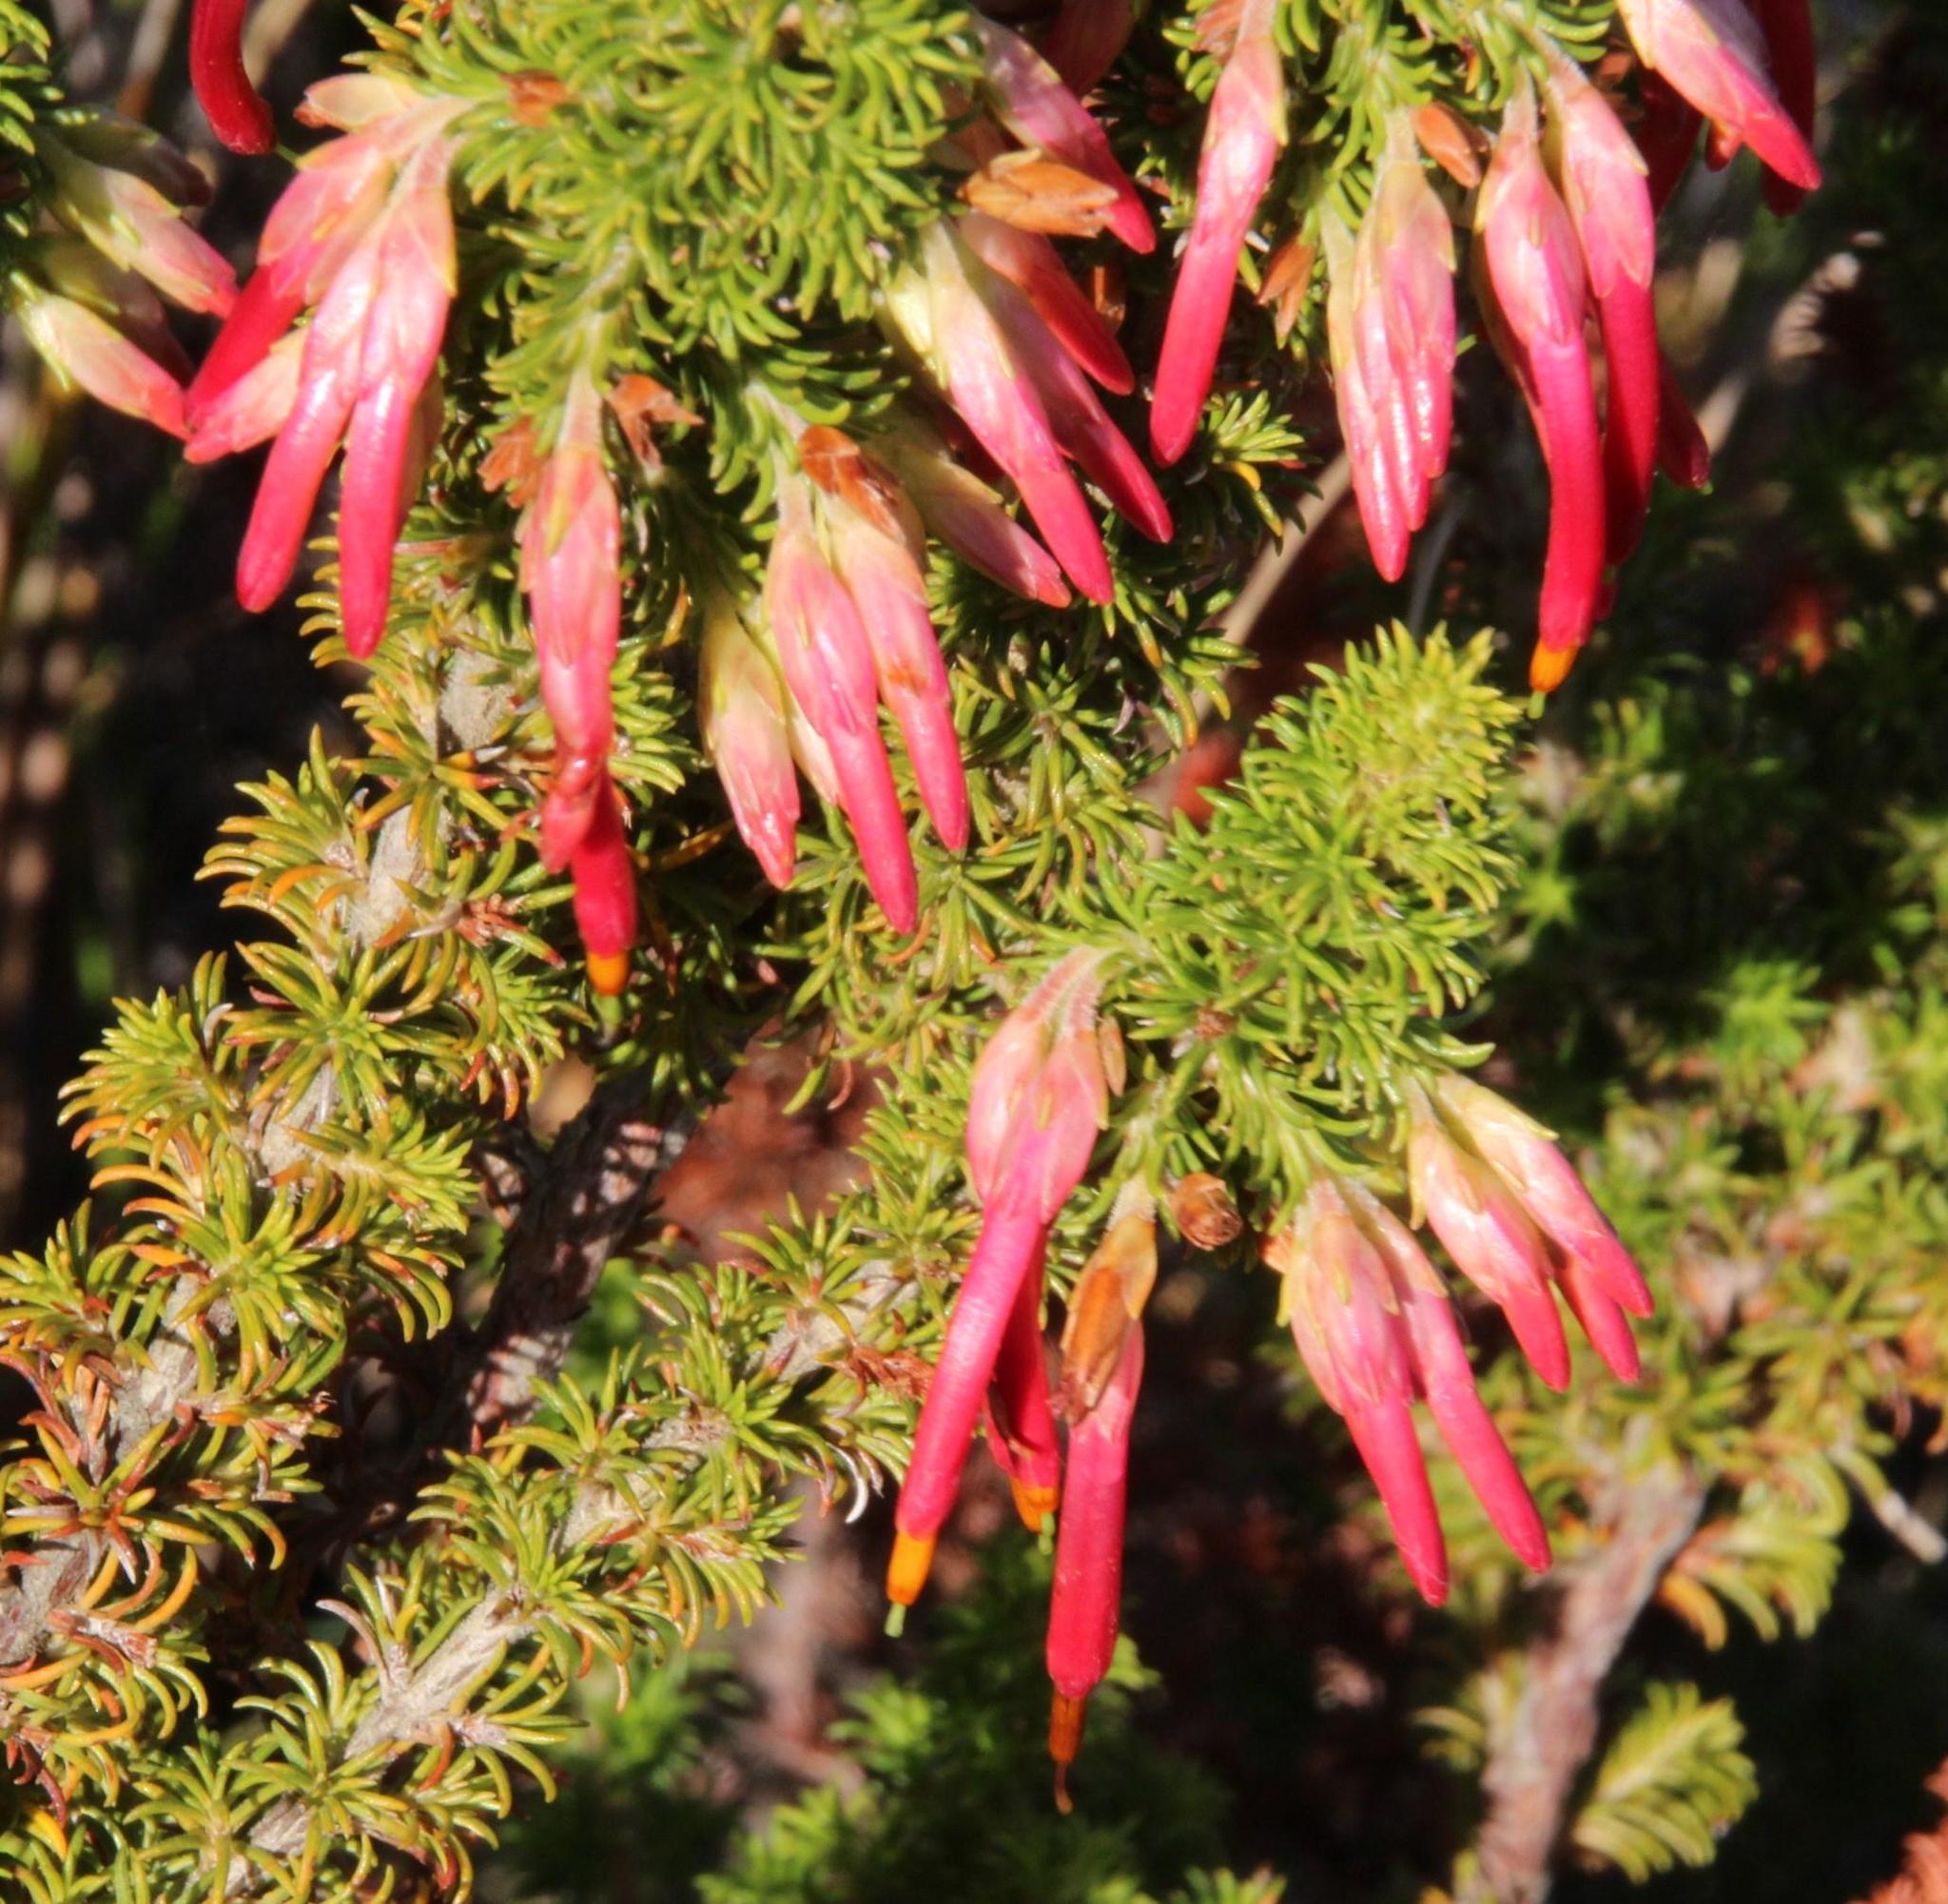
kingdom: Plantae
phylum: Tracheophyta
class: Magnoliopsida
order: Ericales
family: Ericaceae
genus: Erica
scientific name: Erica coccinea
